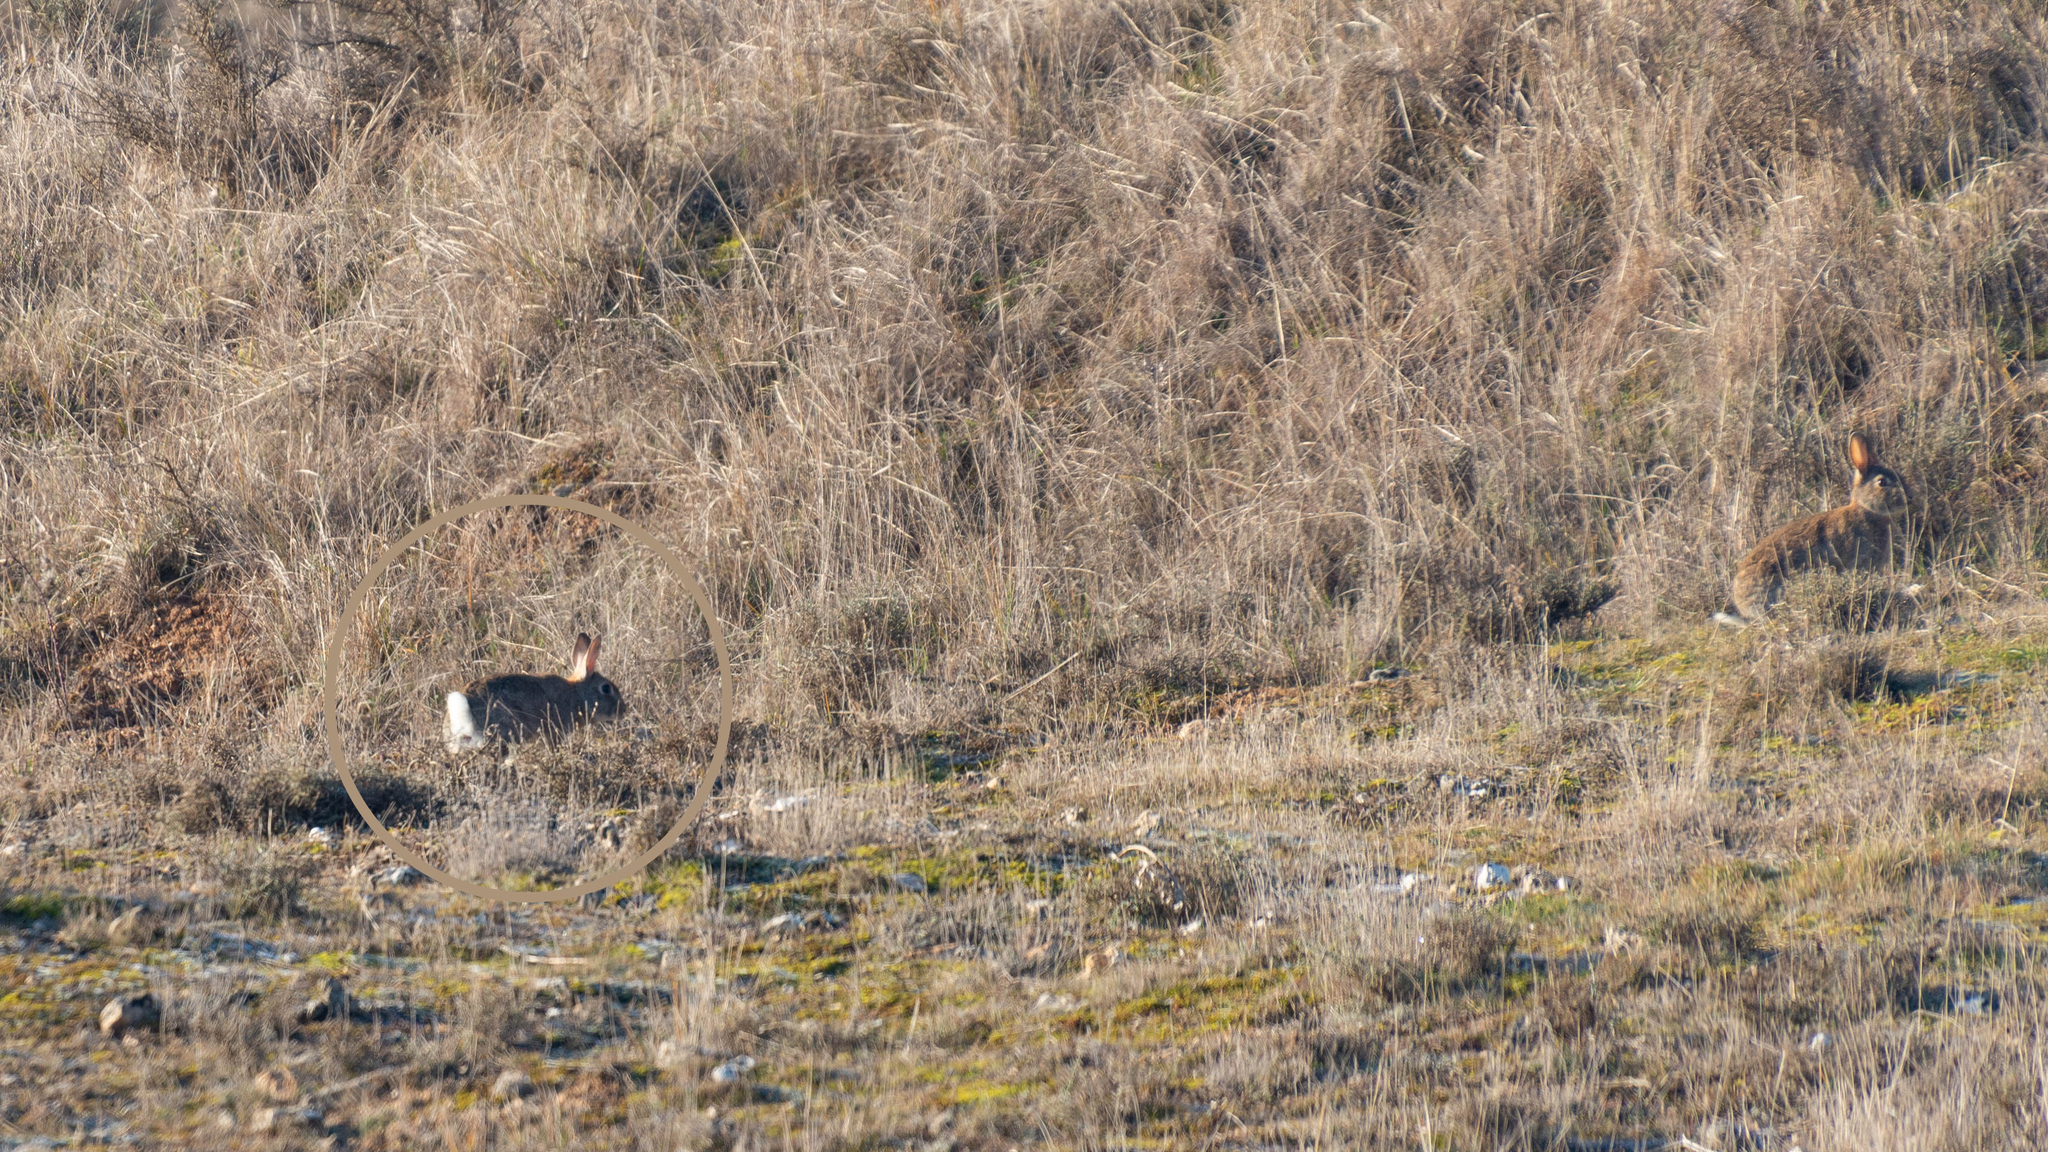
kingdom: Animalia
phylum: Chordata
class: Mammalia
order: Lagomorpha
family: Leporidae
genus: Oryctolagus
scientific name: Oryctolagus cuniculus
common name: European rabbit
